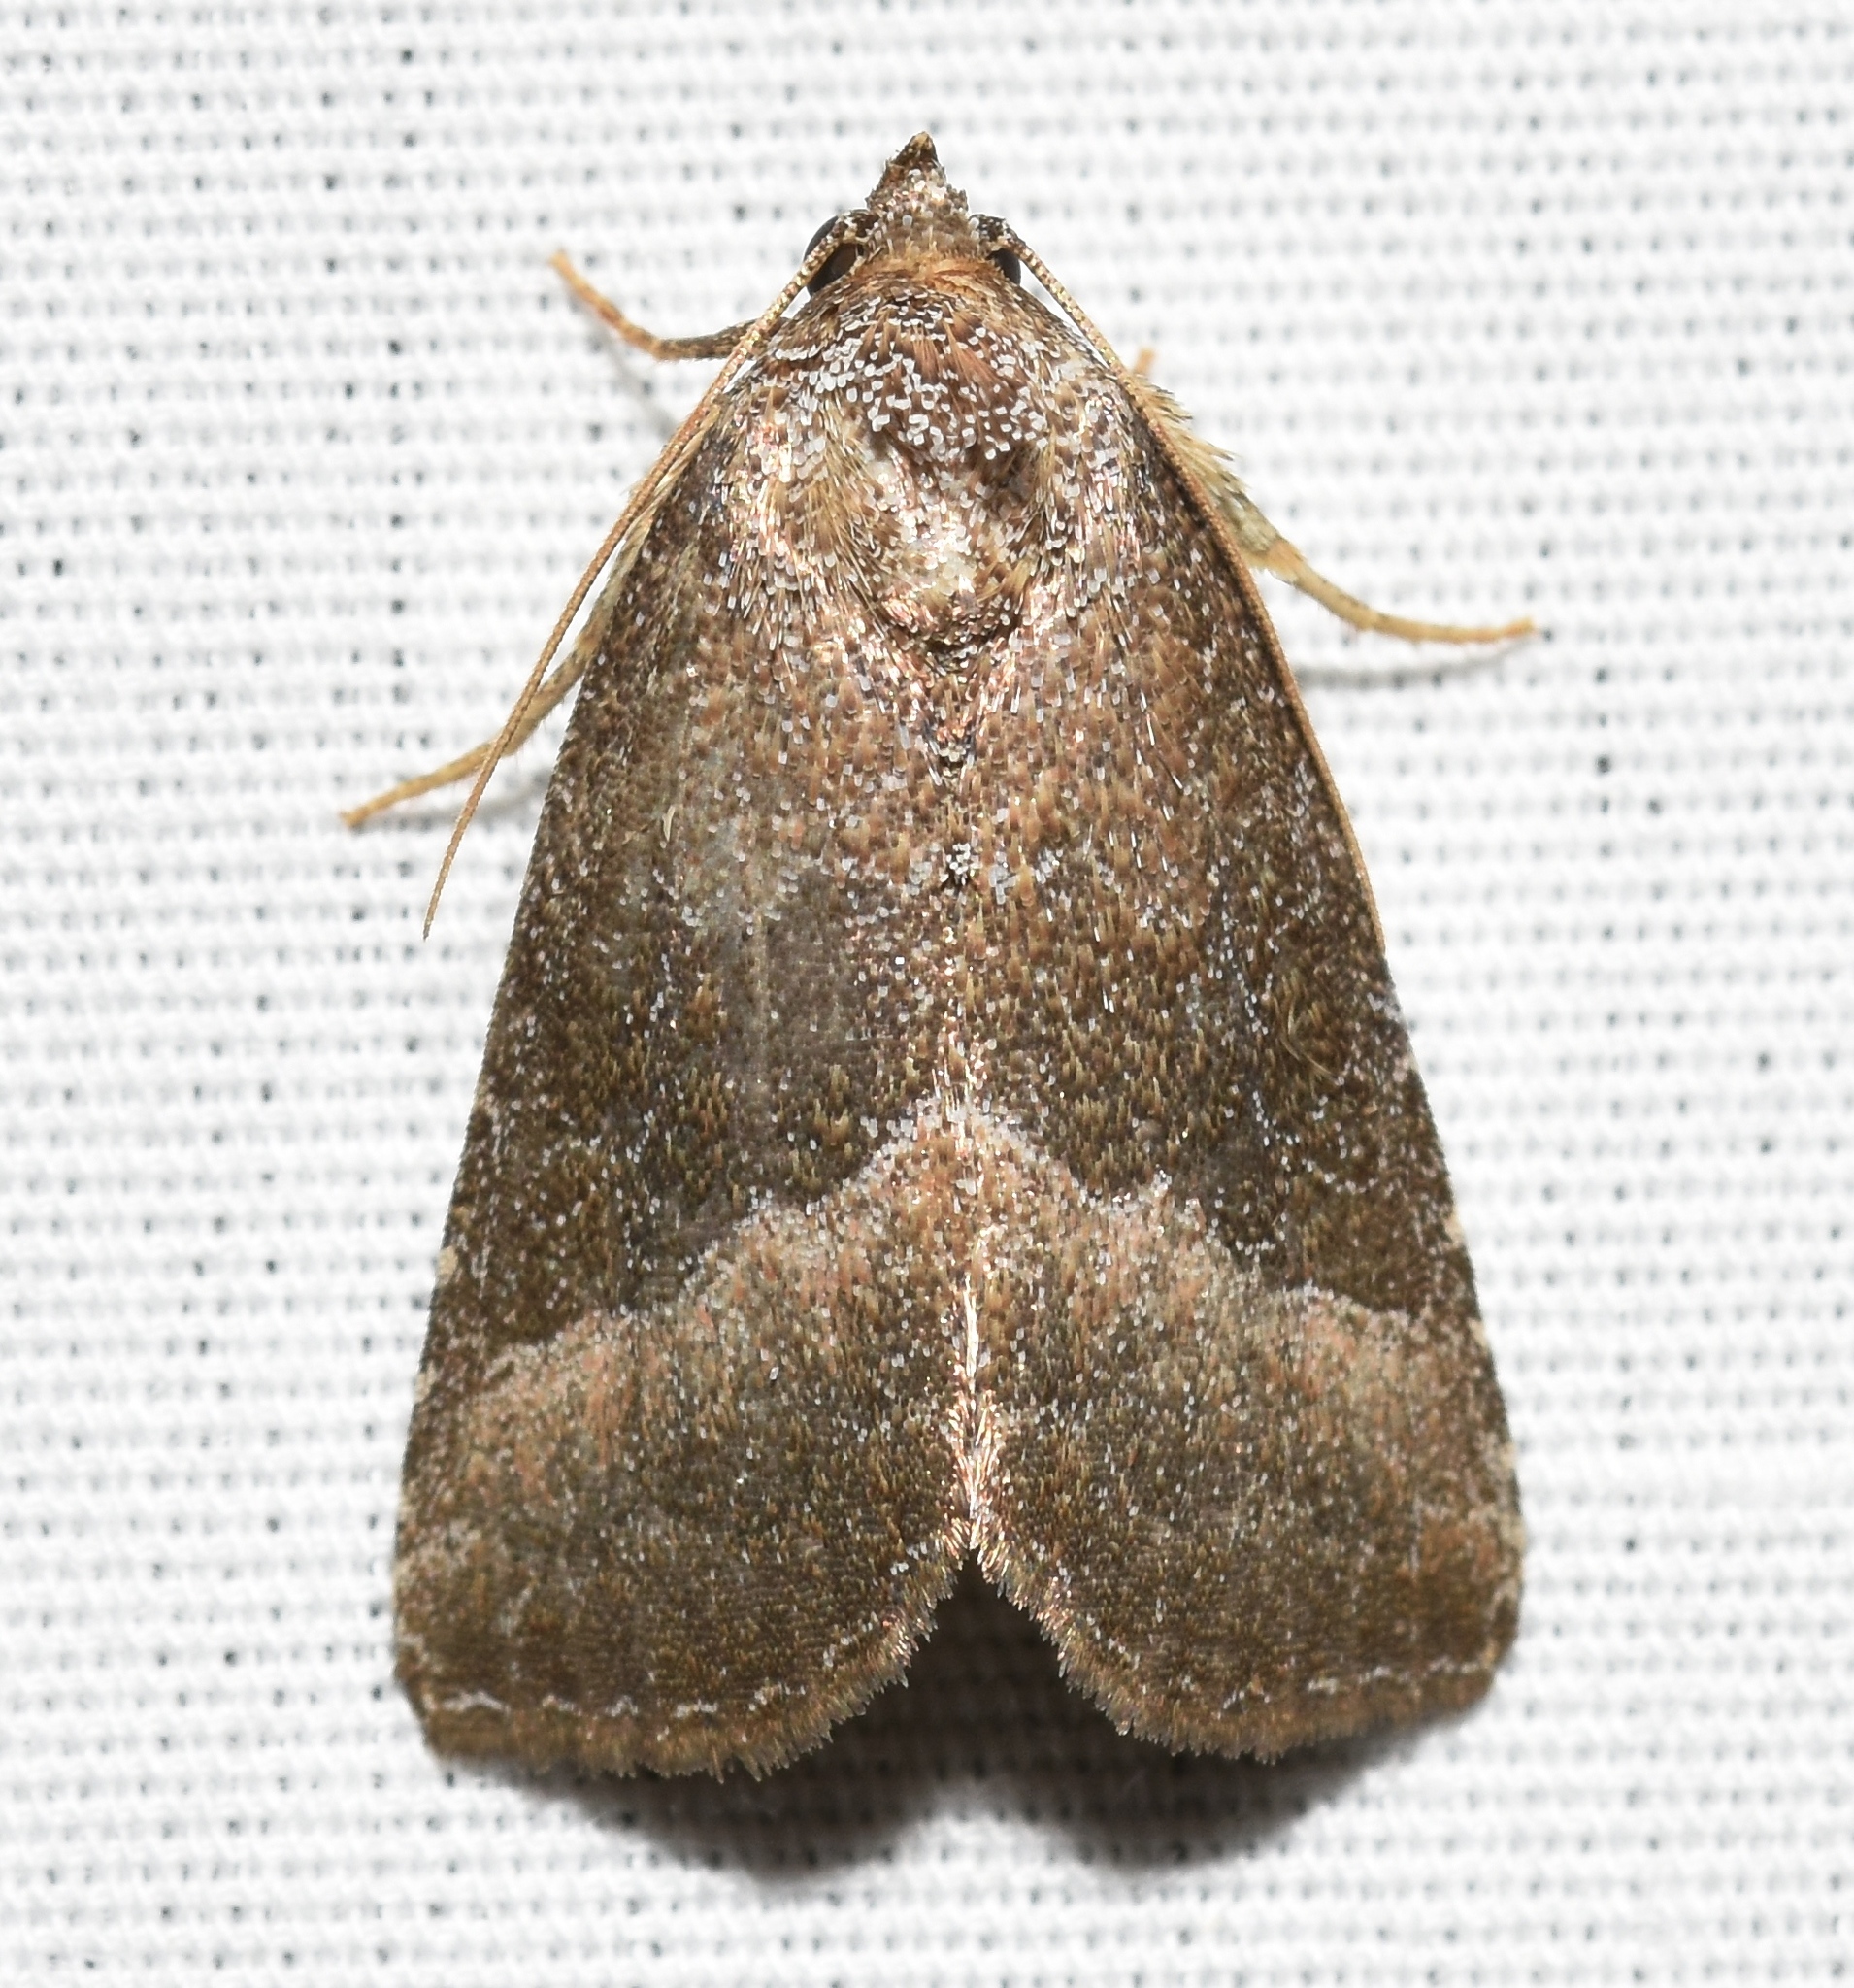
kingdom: Animalia
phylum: Arthropoda
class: Insecta
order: Lepidoptera
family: Noctuidae
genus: Ogdoconta
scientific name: Ogdoconta cinereola
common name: Common pinkband
